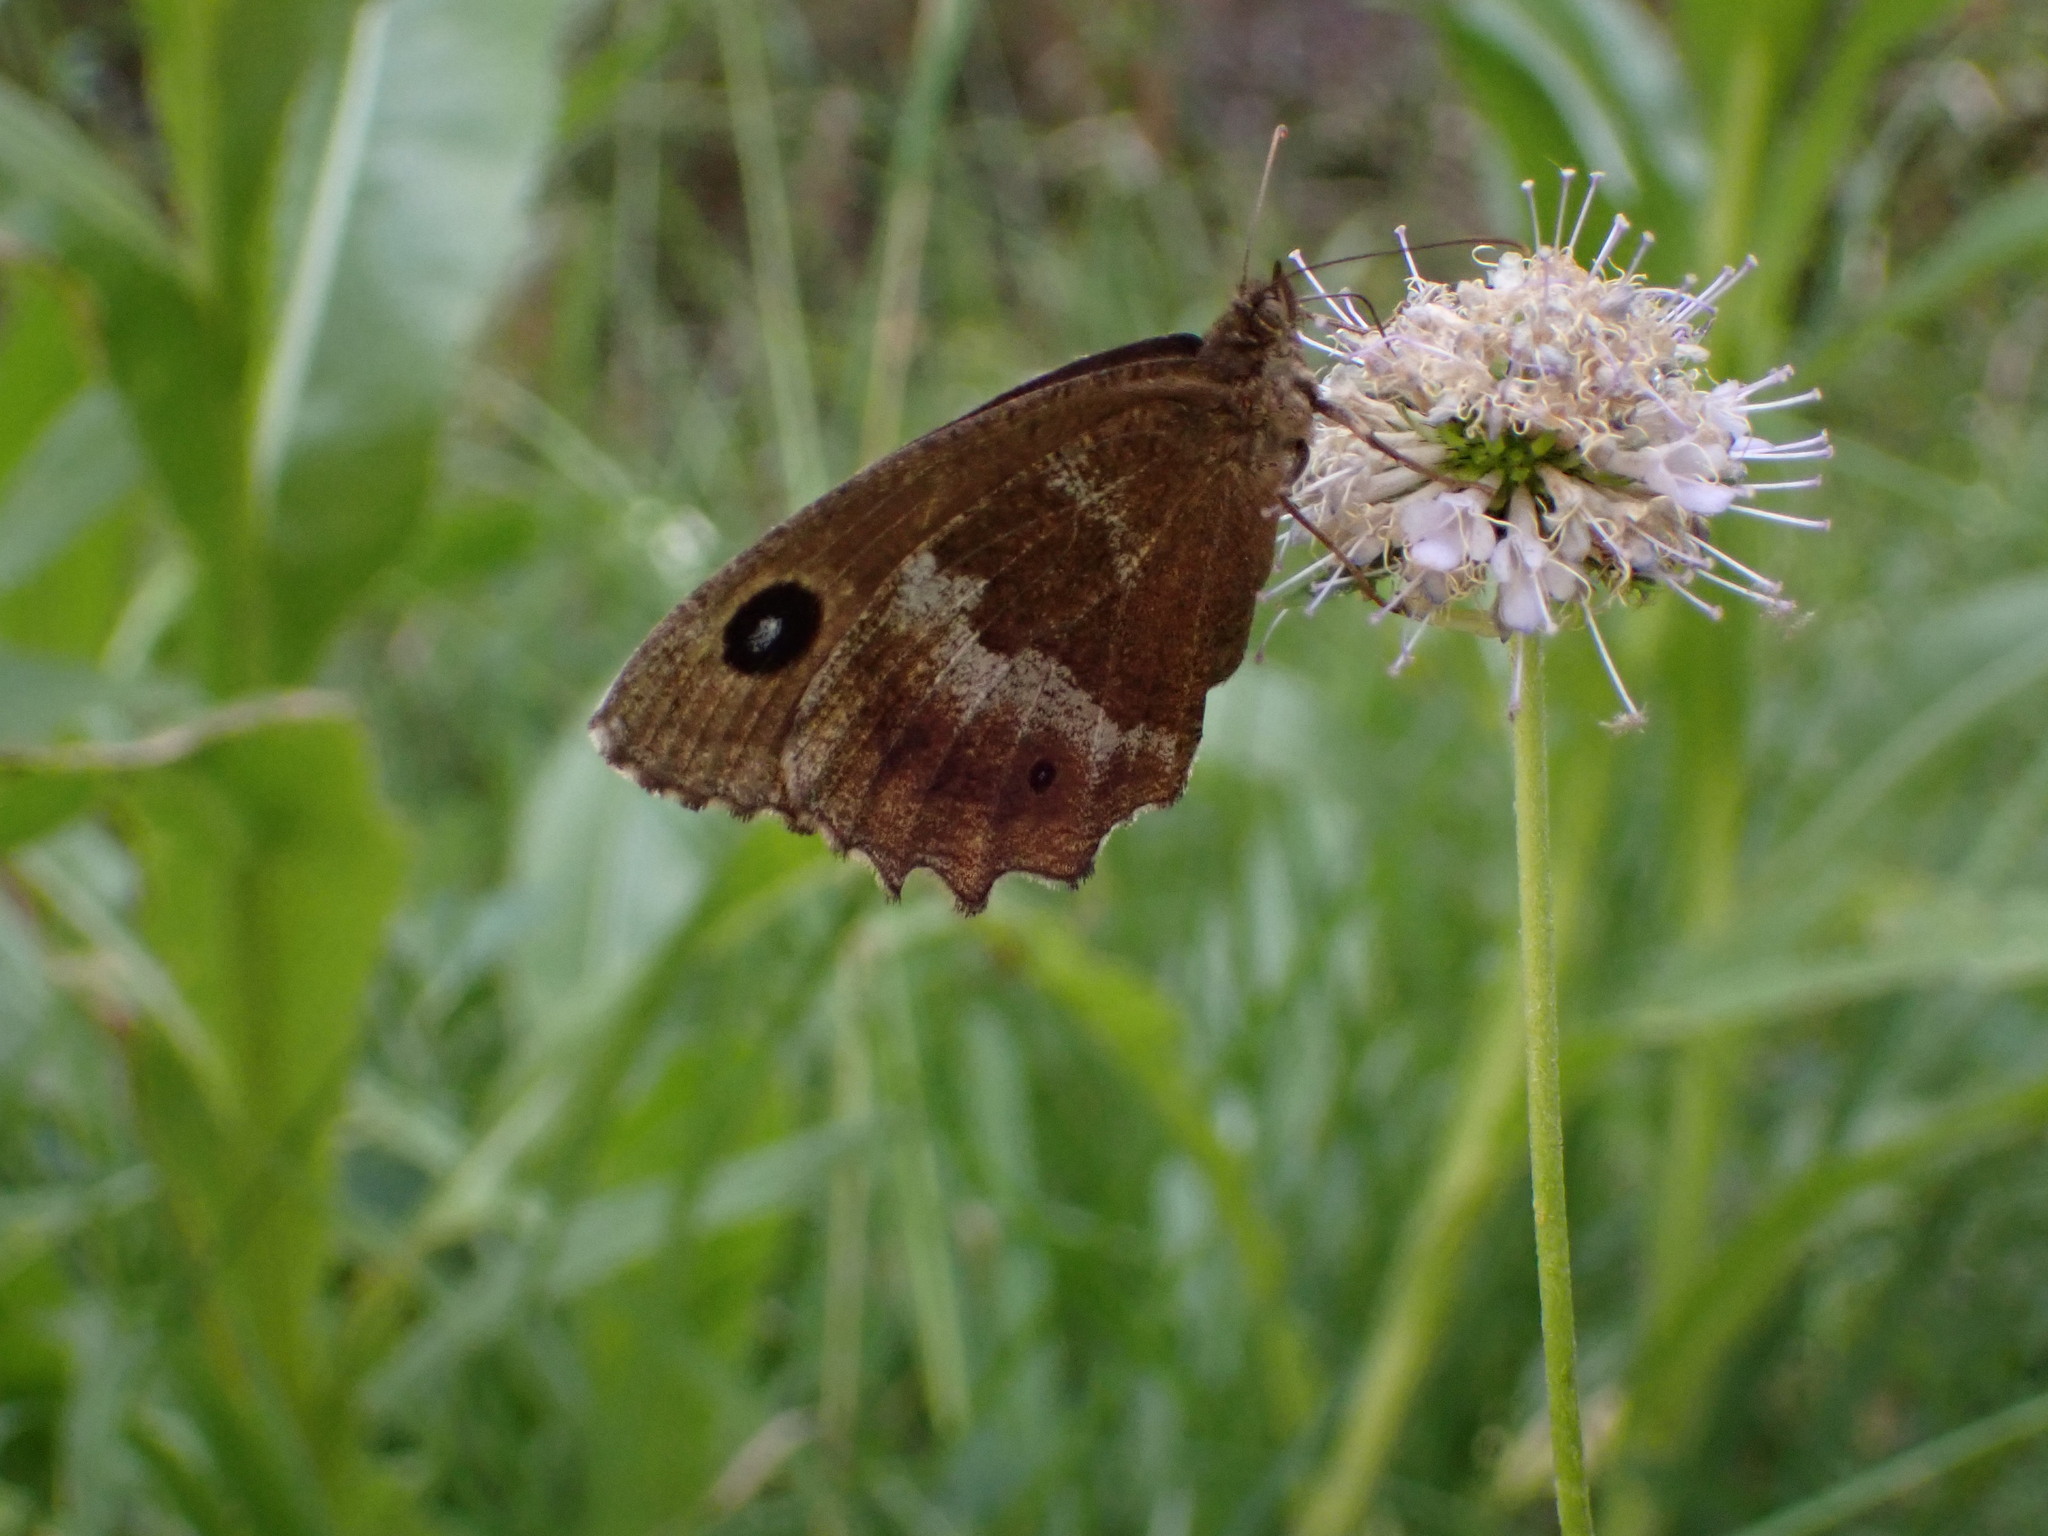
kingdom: Animalia
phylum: Arthropoda
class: Insecta
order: Lepidoptera
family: Nymphalidae
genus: Minois
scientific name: Minois dryas
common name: Dryad
